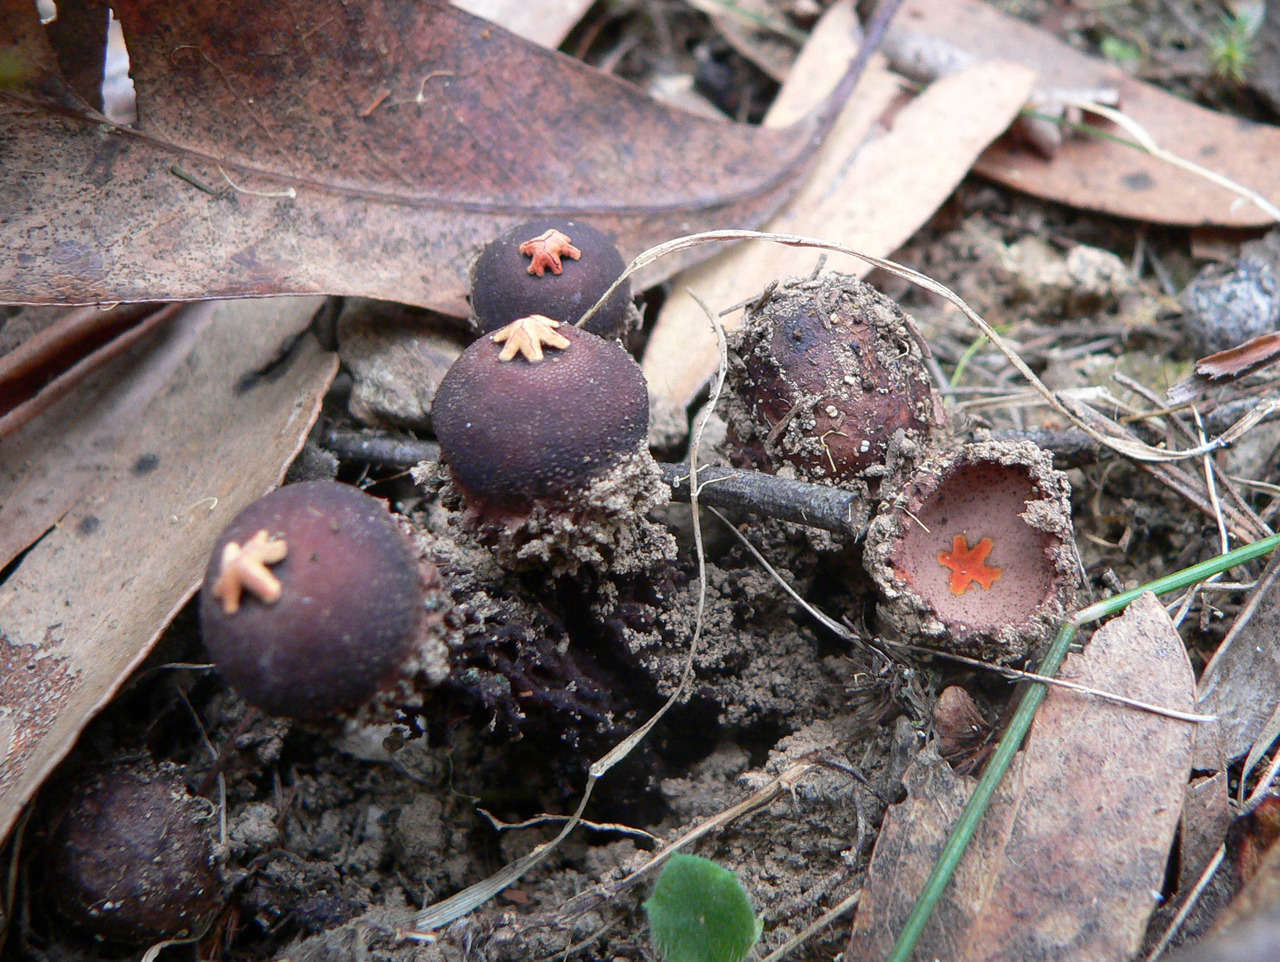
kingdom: Fungi
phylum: Basidiomycota
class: Agaricomycetes
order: Boletales
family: Calostomataceae
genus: Calostoma
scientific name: Calostoma fuscum
